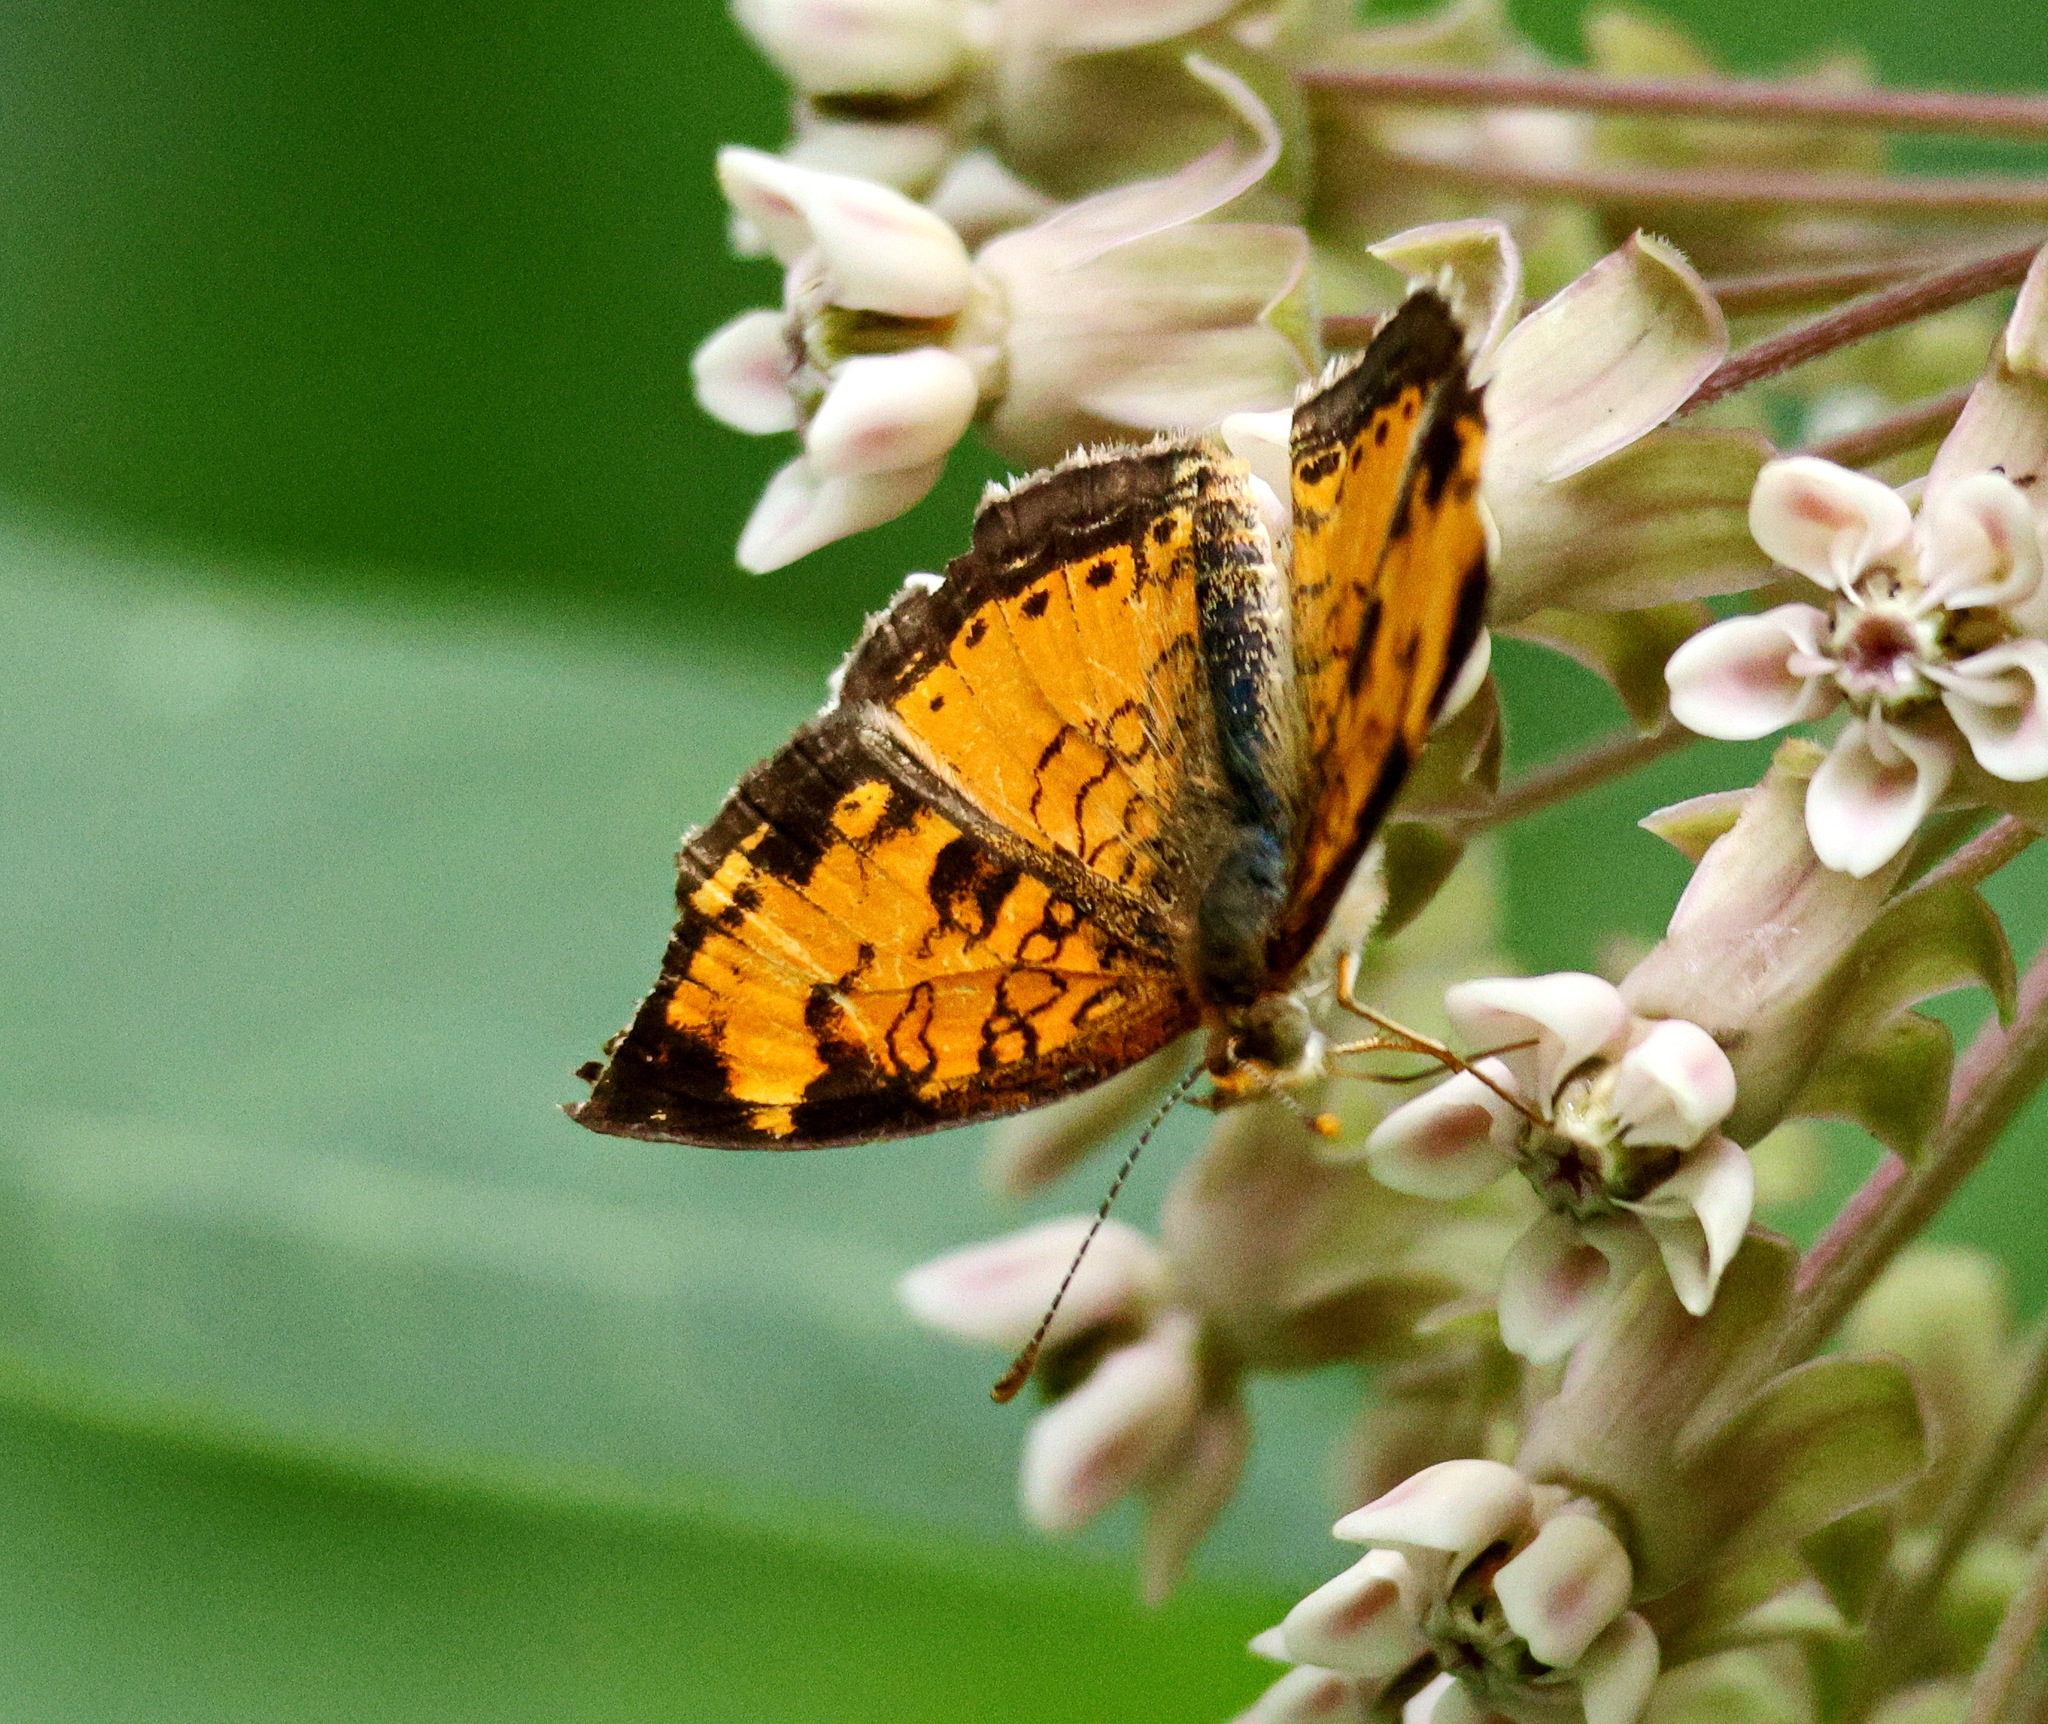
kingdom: Animalia
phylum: Arthropoda
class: Insecta
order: Lepidoptera
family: Nymphalidae
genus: Phyciodes
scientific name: Phyciodes tharos
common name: Pearl crescent
